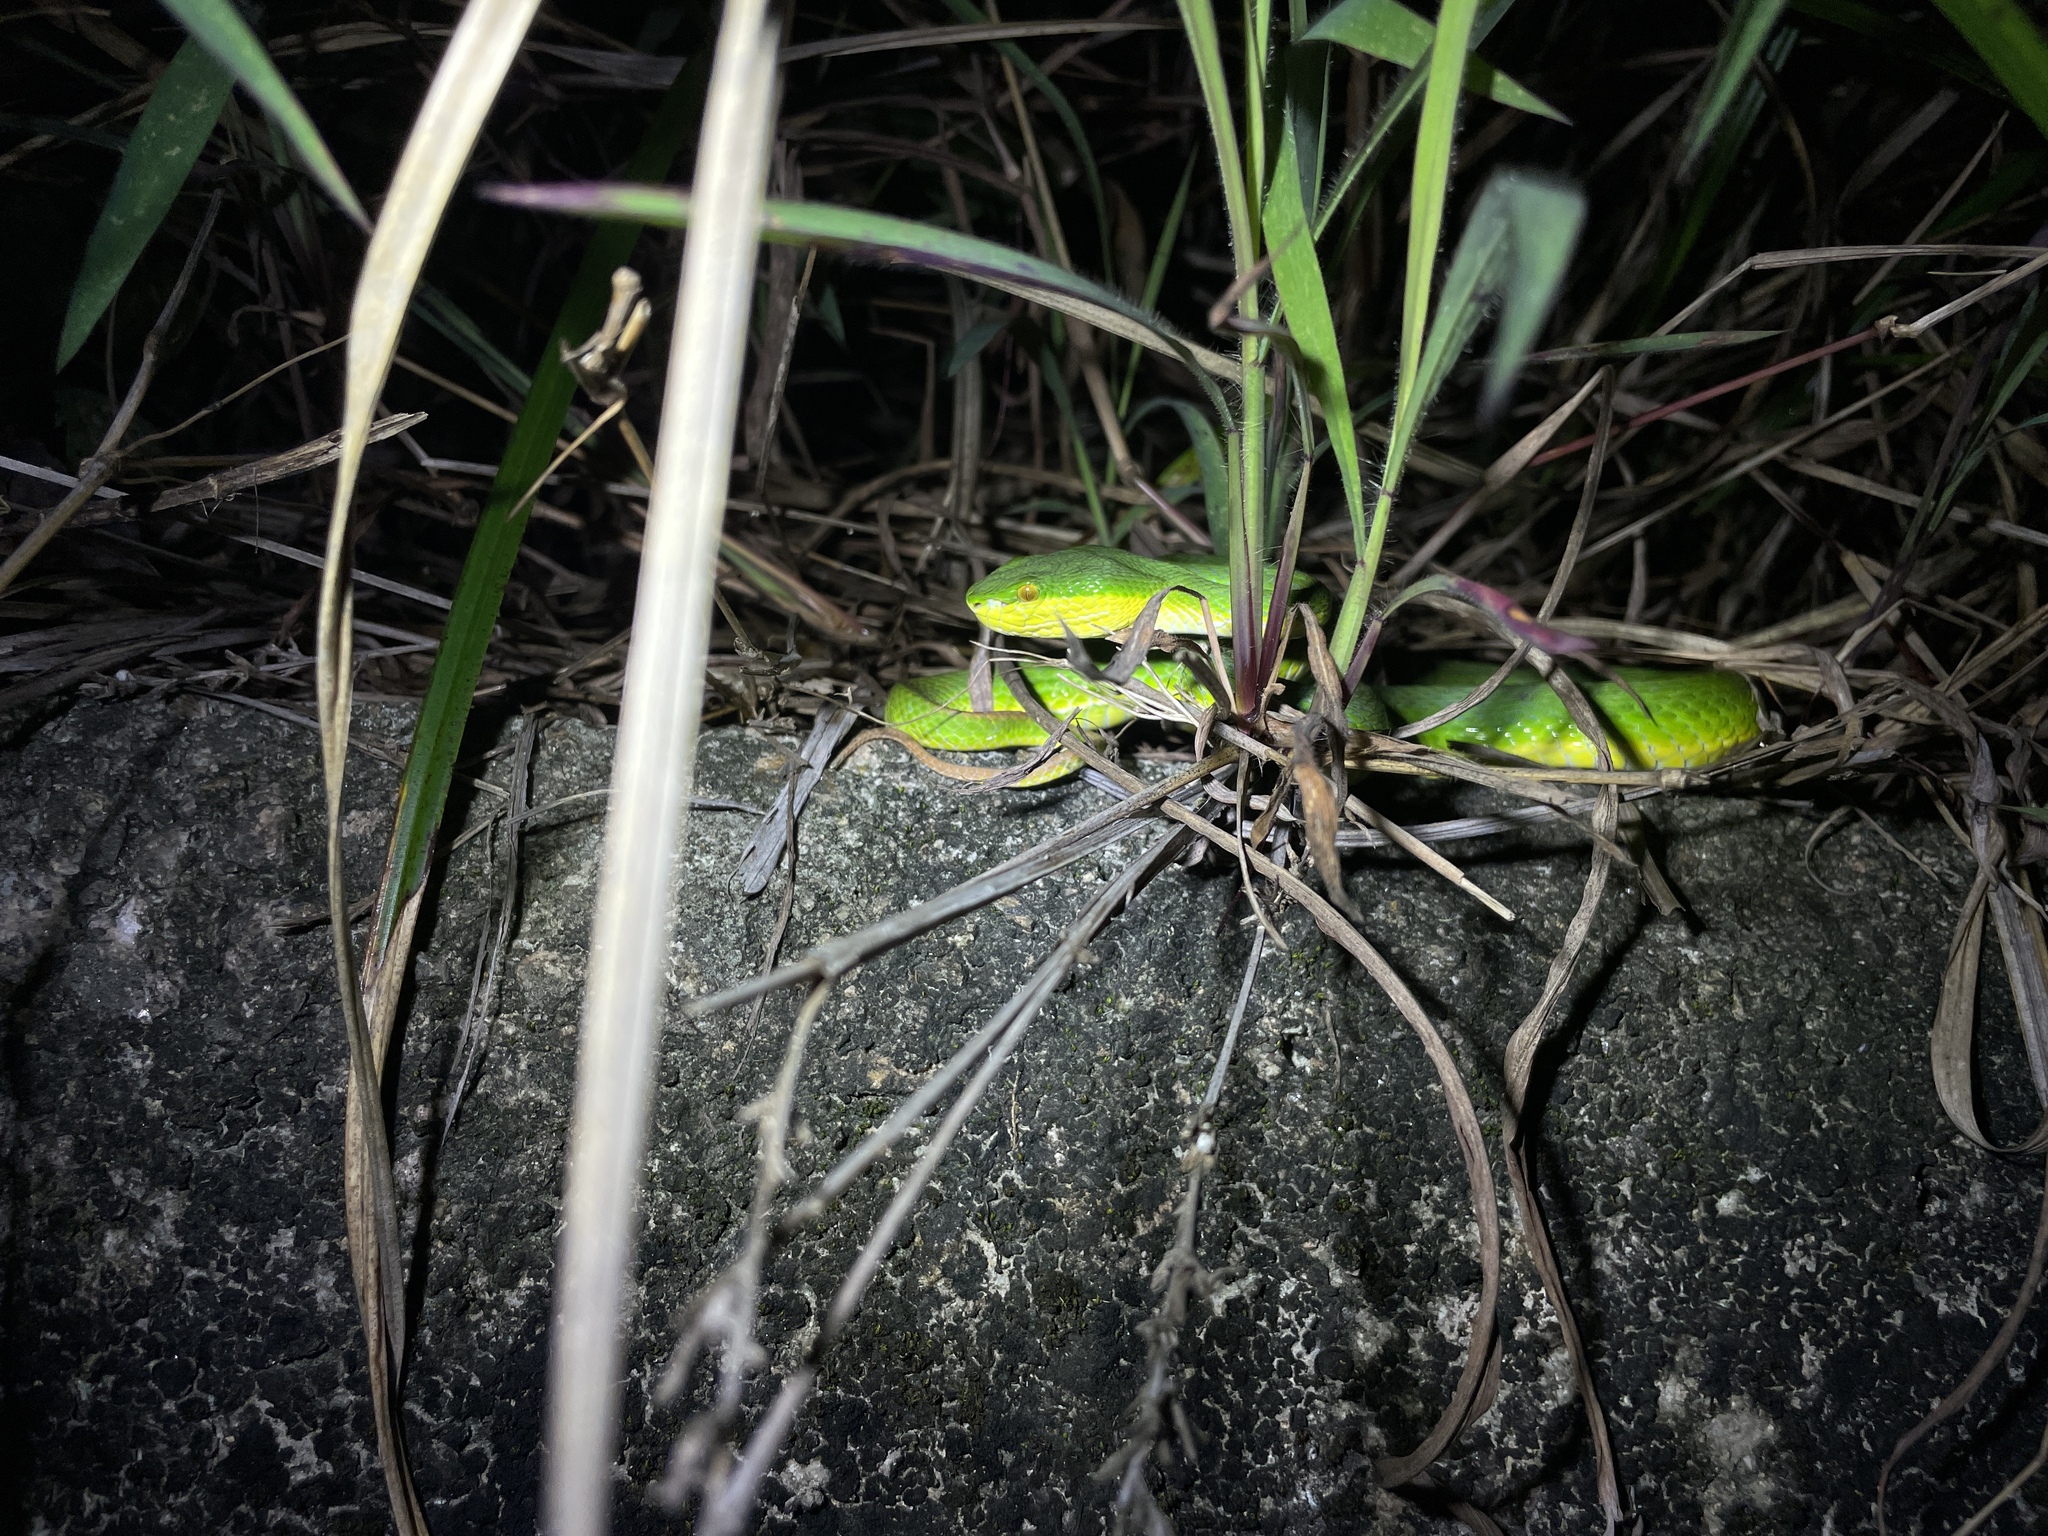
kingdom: Animalia
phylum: Chordata
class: Squamata
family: Viperidae
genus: Trimeresurus
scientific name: Trimeresurus albolabris
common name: White-lipped pitviper
